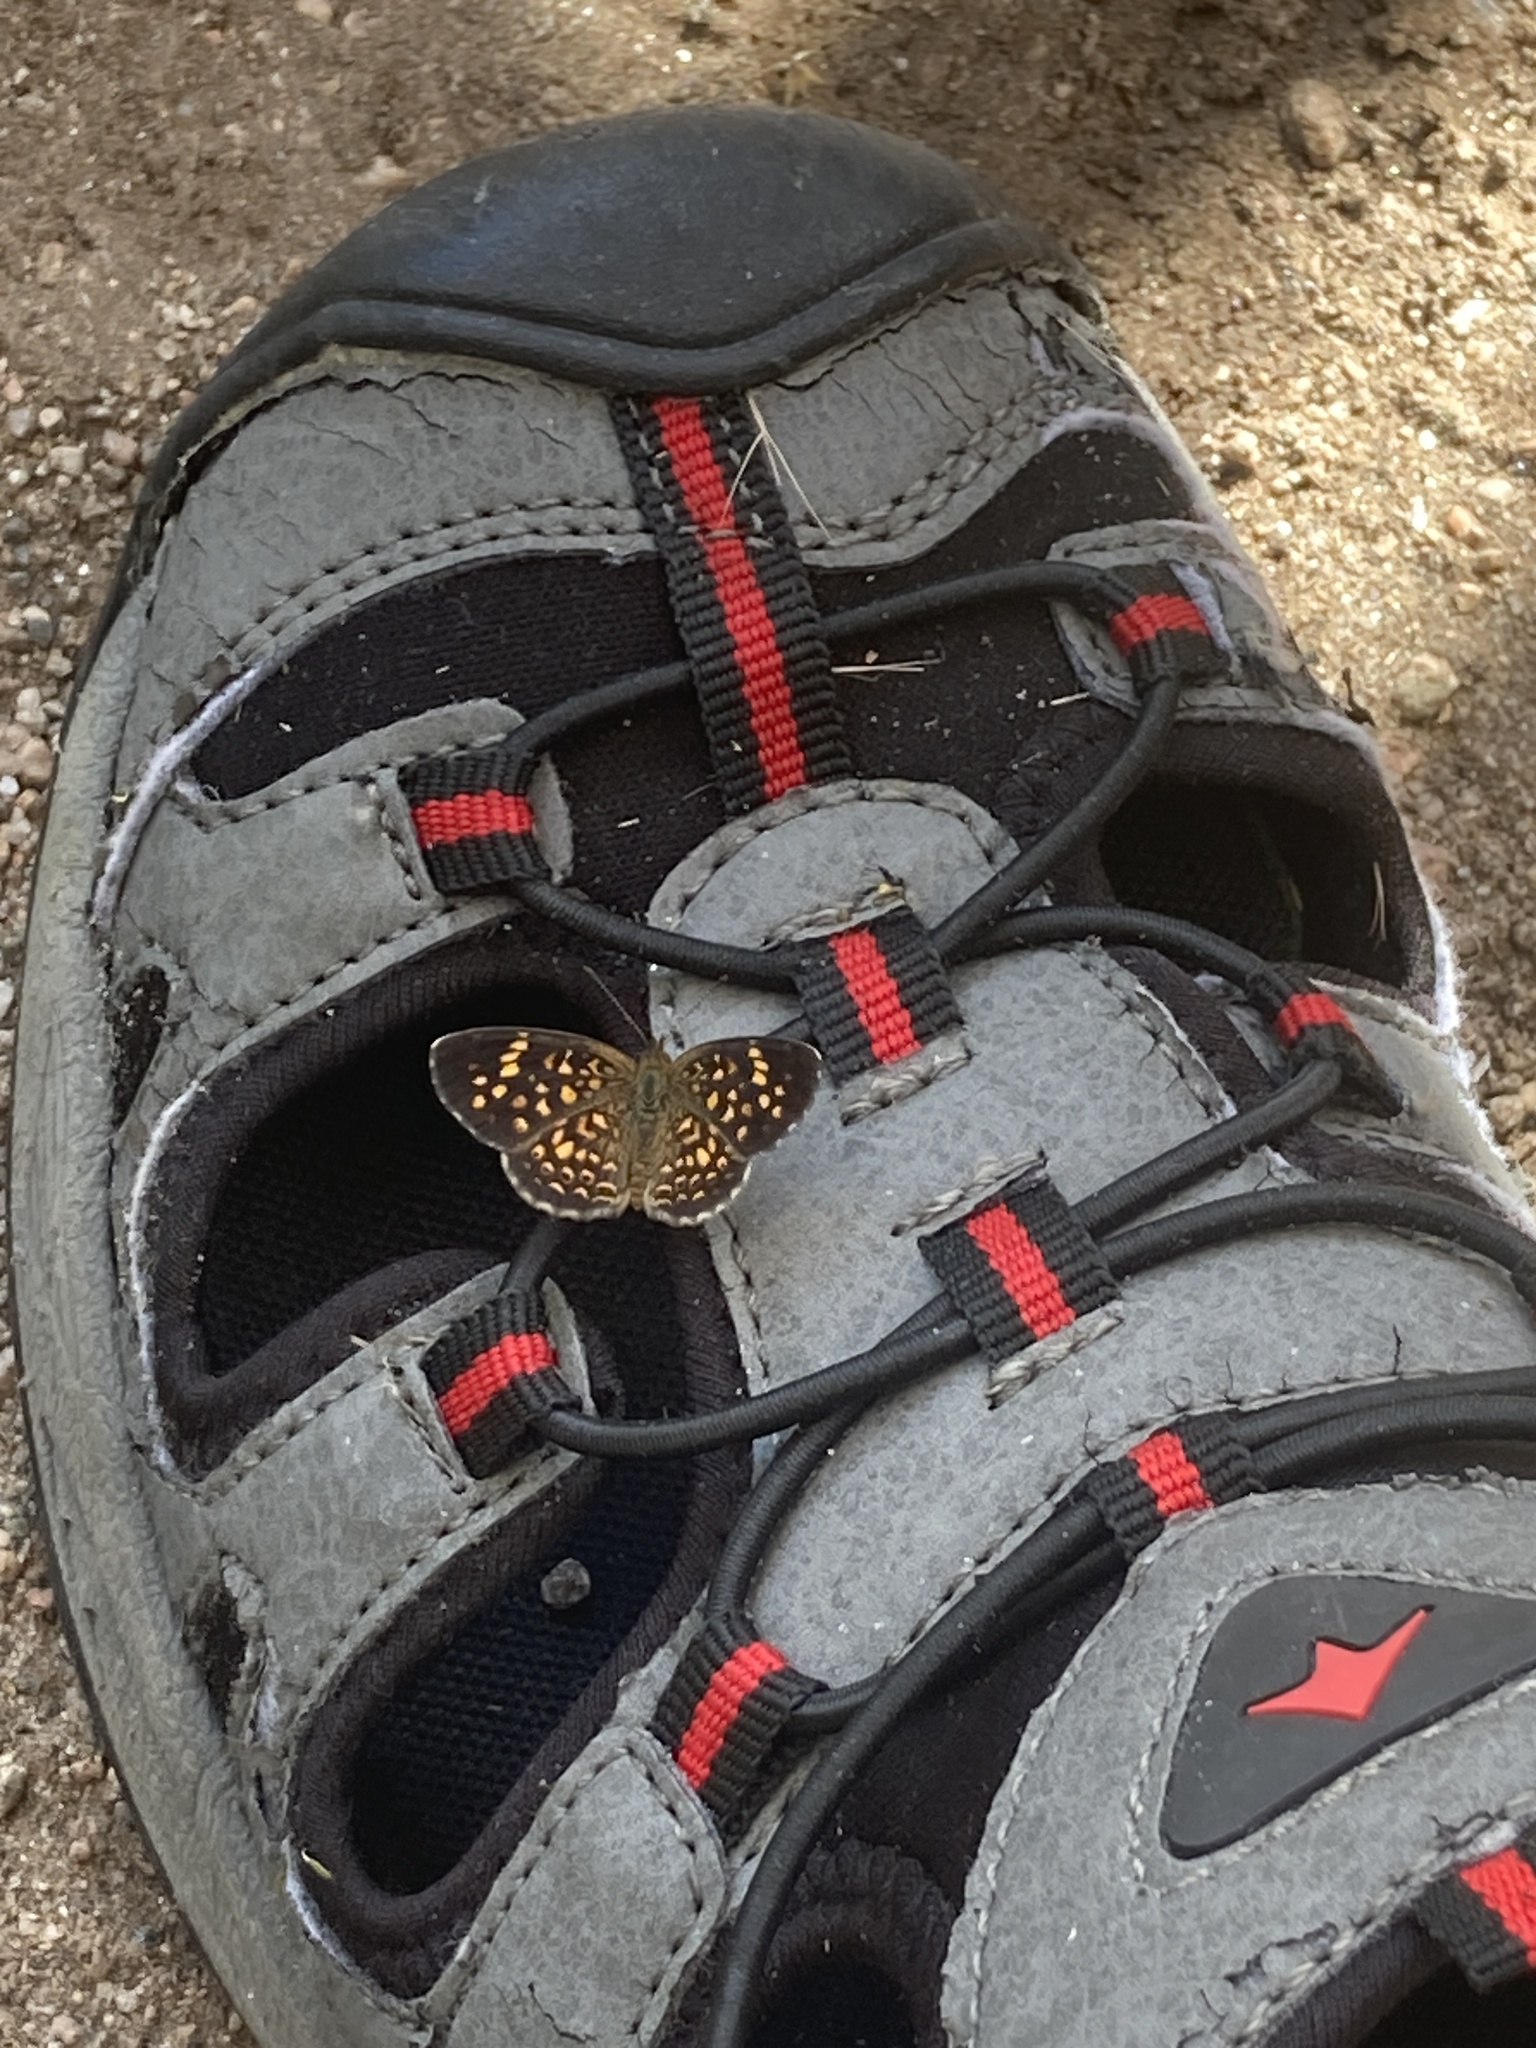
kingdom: Animalia
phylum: Arthropoda
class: Insecta
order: Lepidoptera
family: Nymphalidae
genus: Phystis
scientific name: Phystis simois
